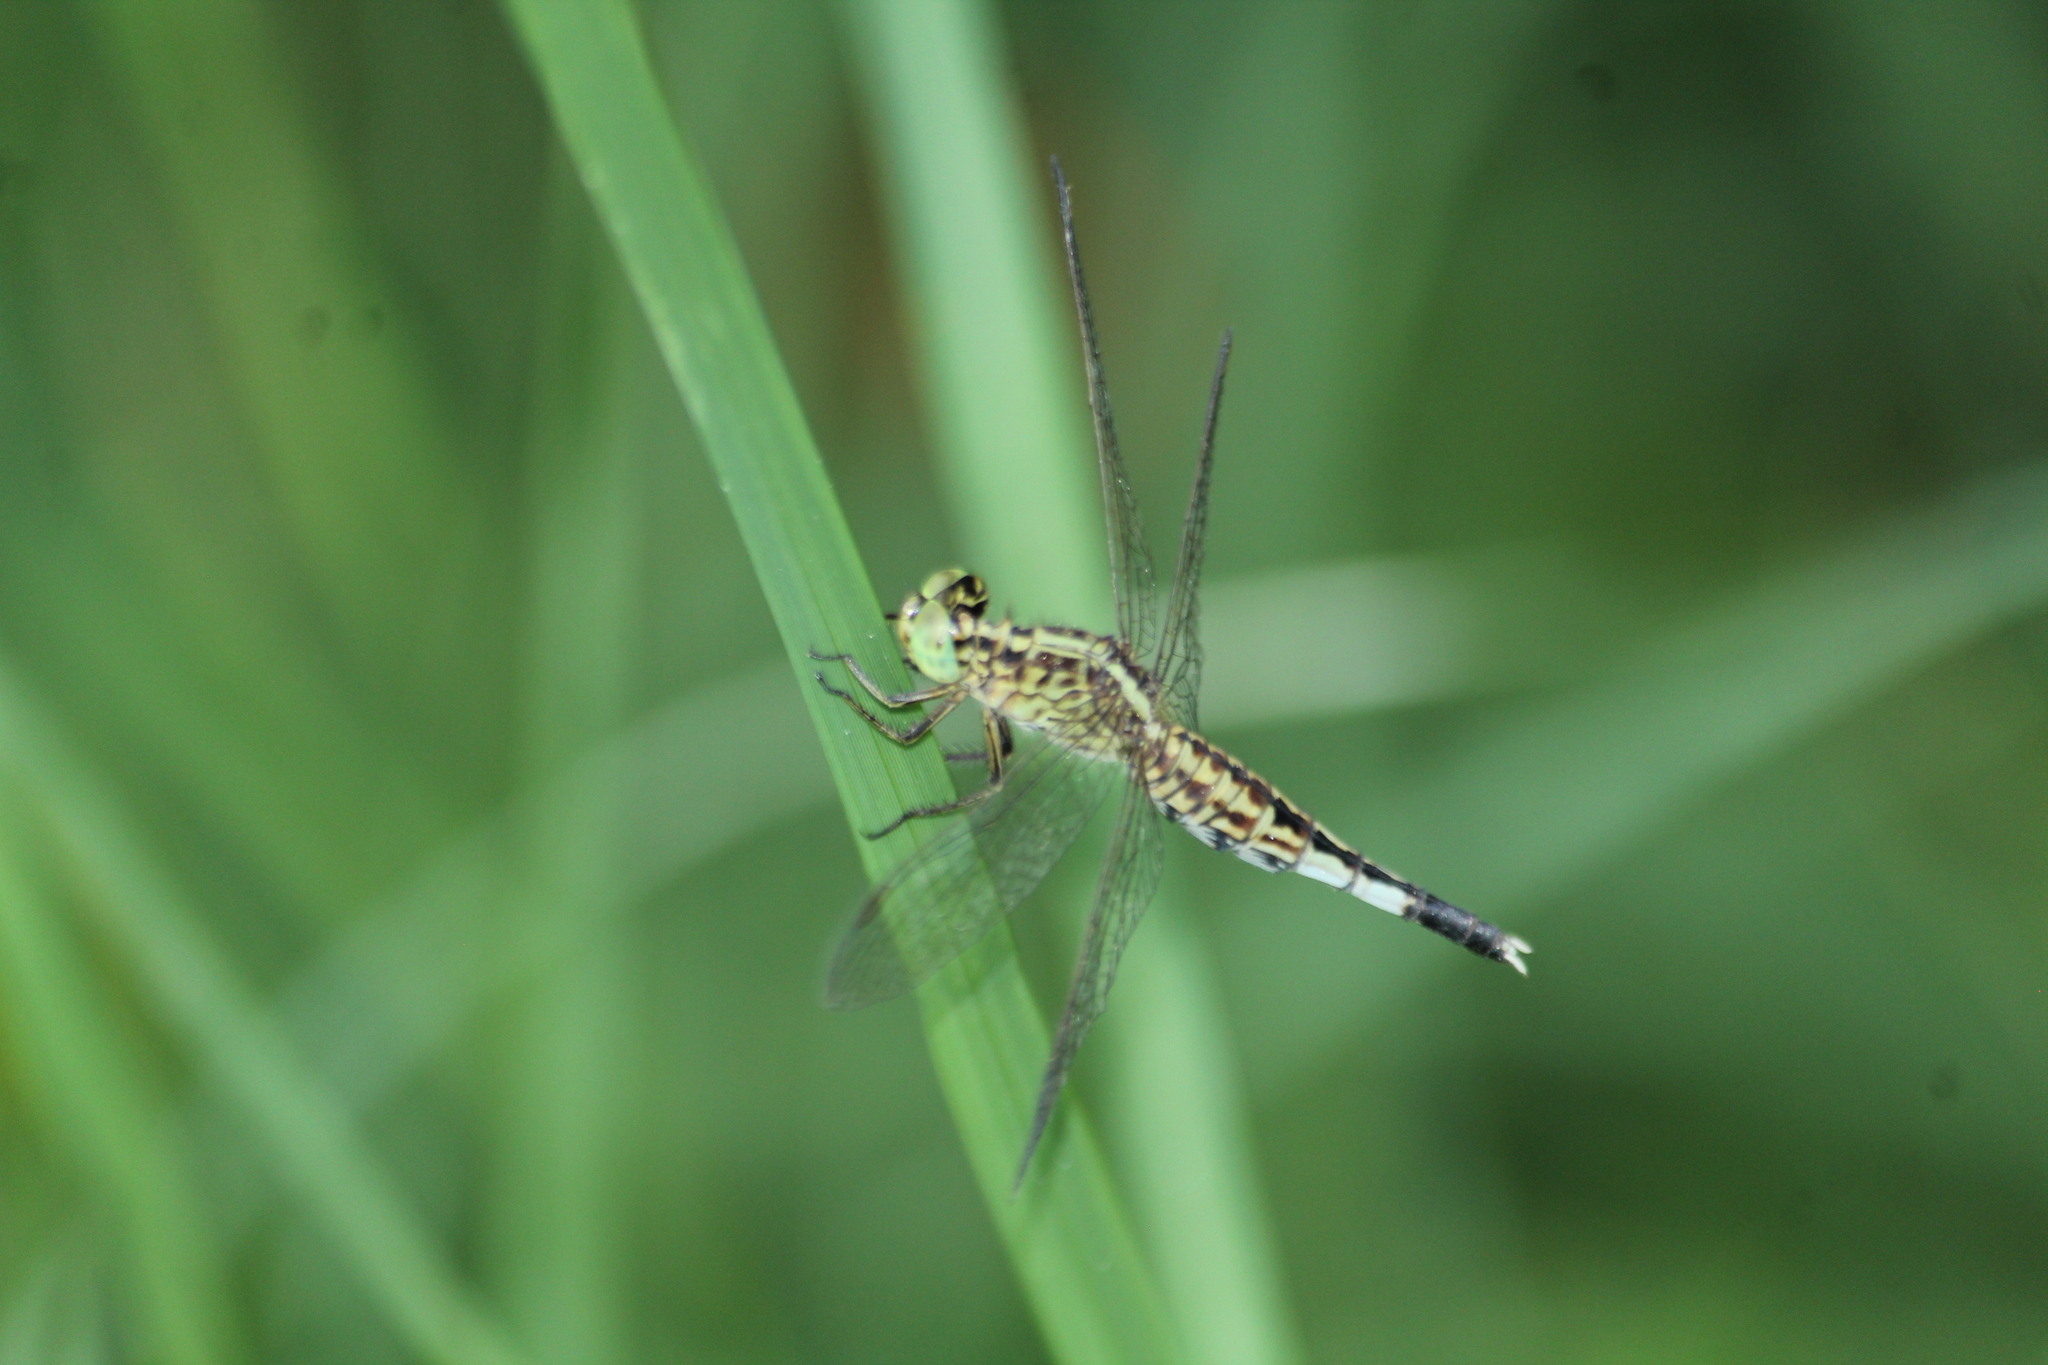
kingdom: Animalia
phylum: Arthropoda
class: Insecta
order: Odonata
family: Libellulidae
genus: Acisoma
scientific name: Acisoma panorpoides
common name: Asian pintail
